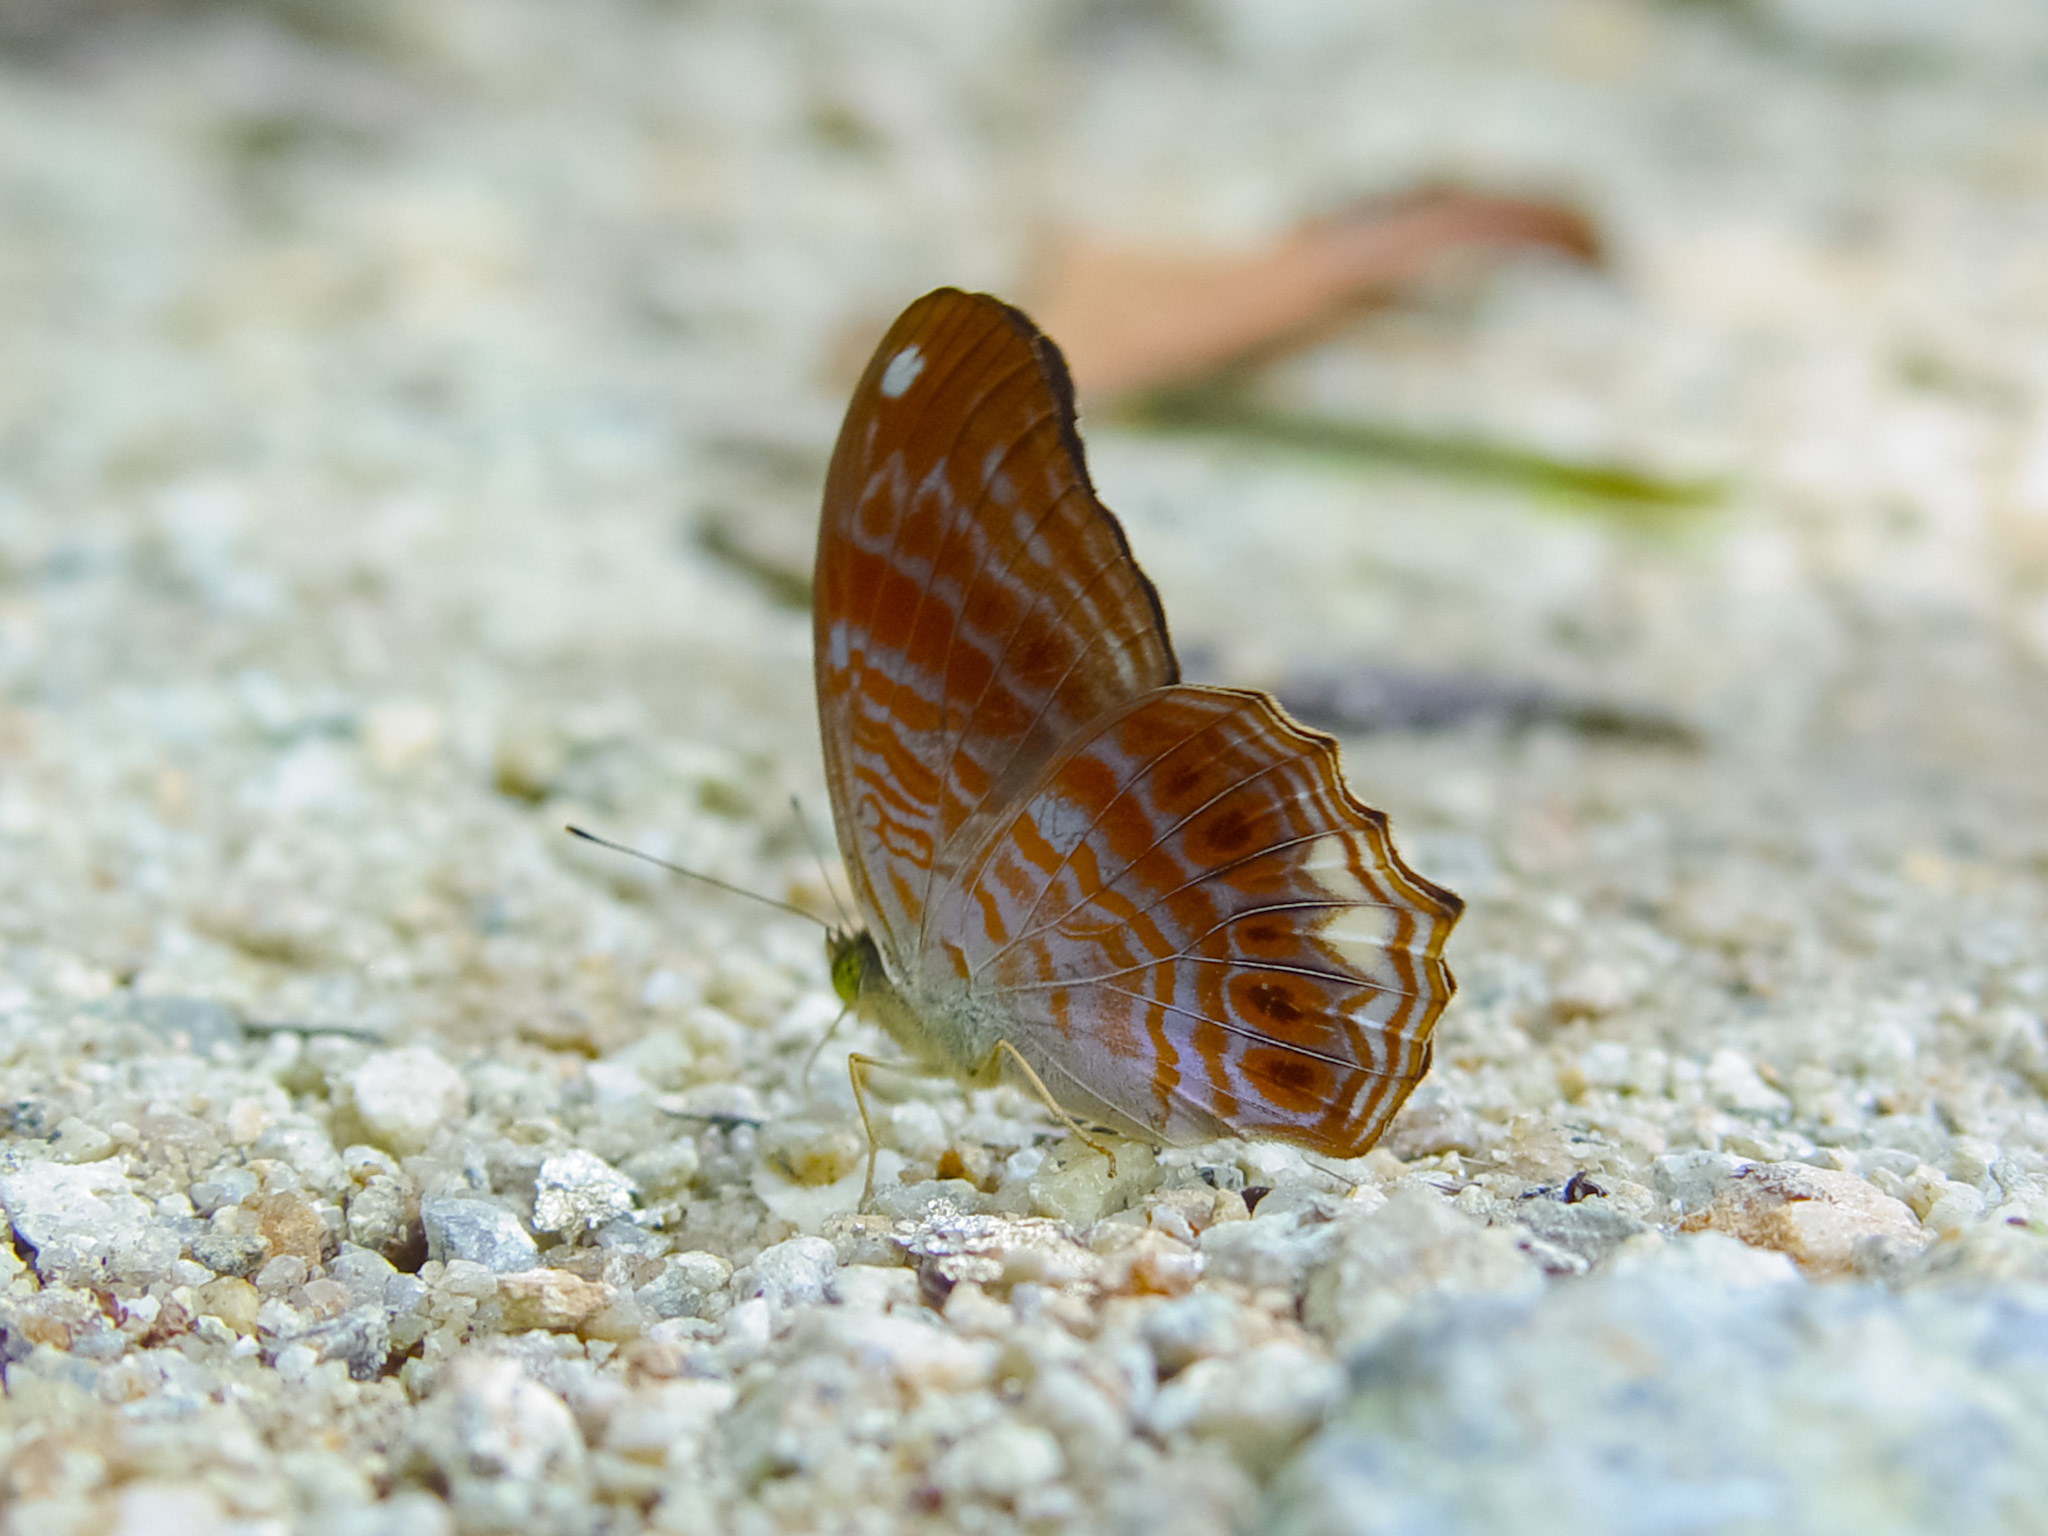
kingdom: Animalia
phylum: Arthropoda
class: Insecta
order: Lepidoptera
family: Nymphalidae
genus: Terinos
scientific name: Terinos terpander
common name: Royal assyrian
